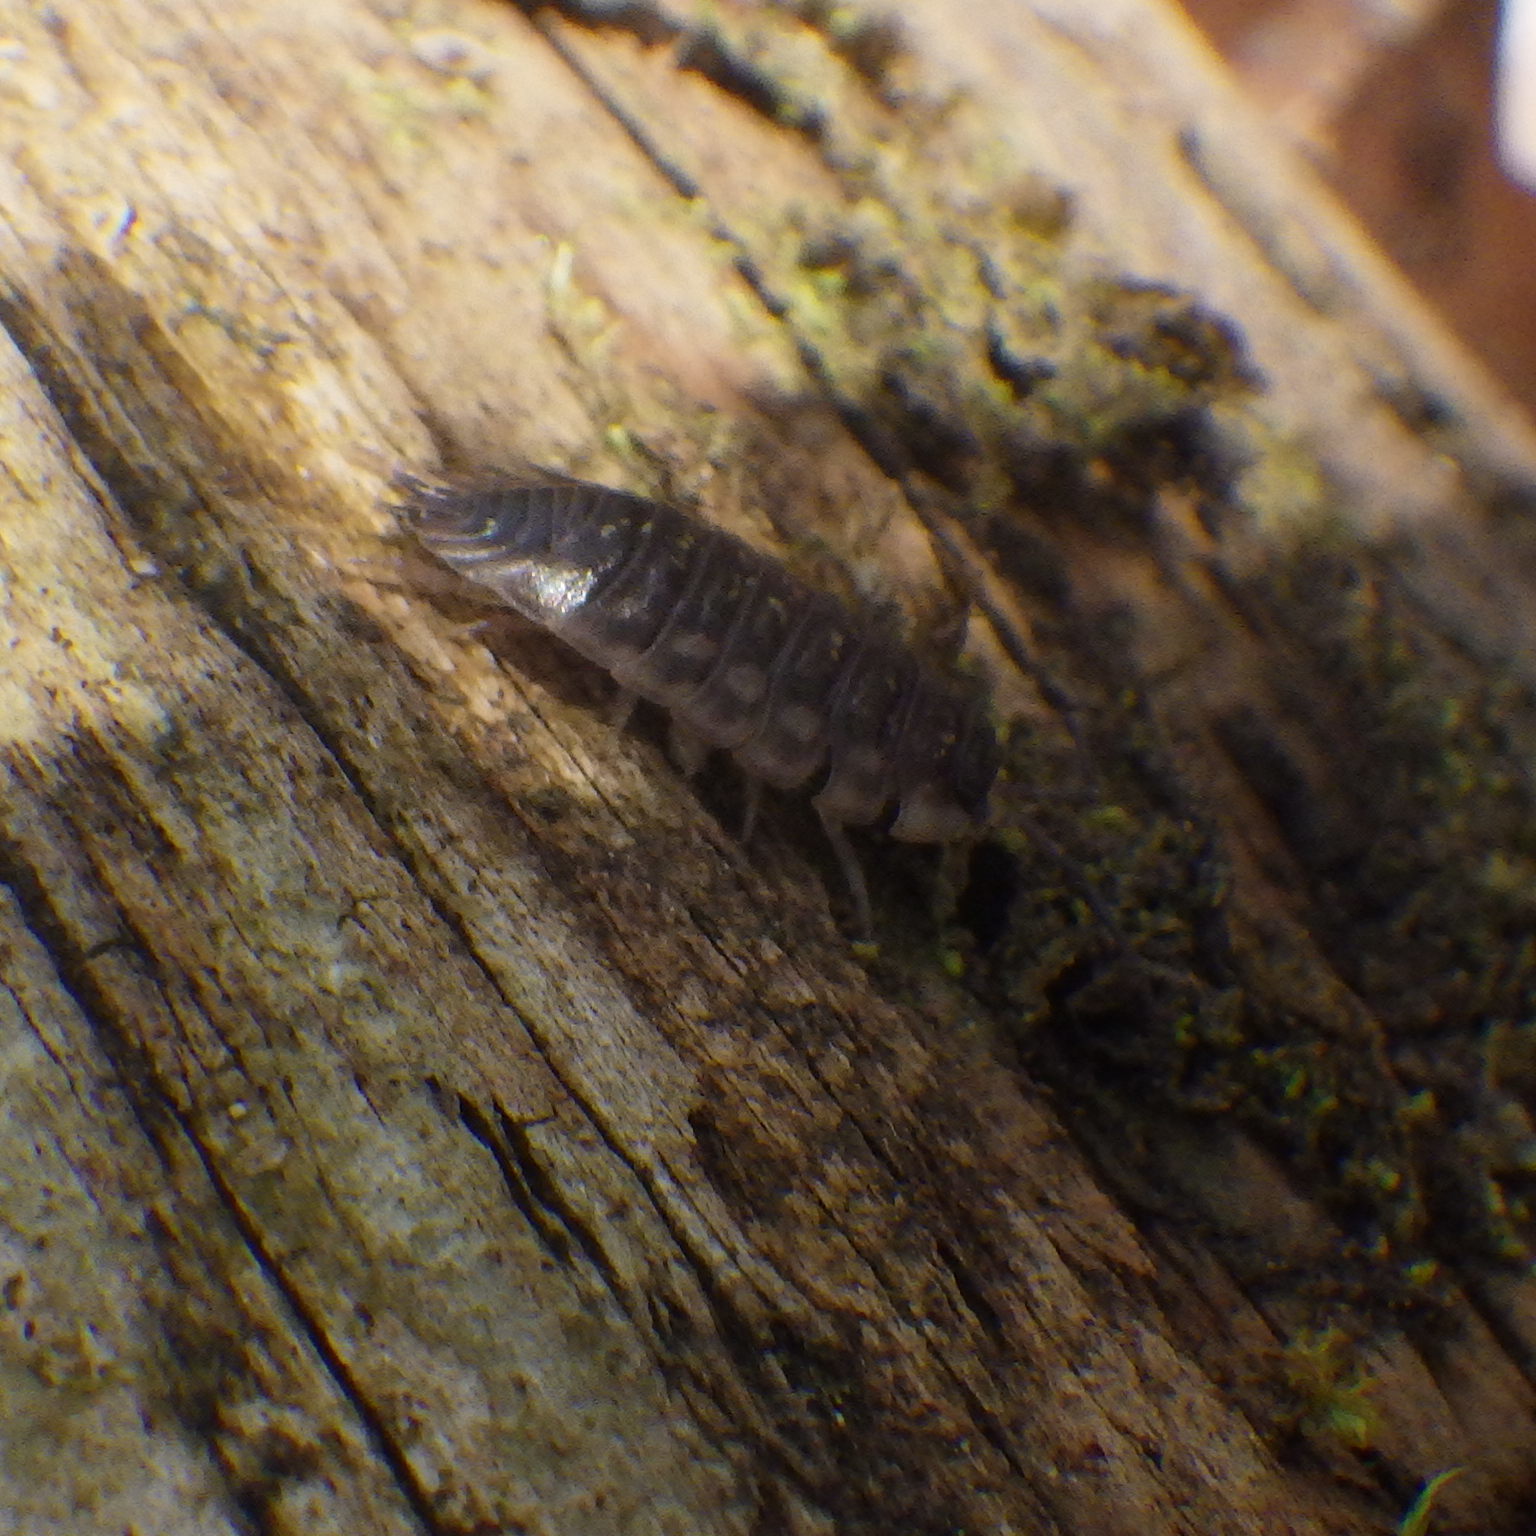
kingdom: Animalia
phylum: Arthropoda
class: Malacostraca
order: Isopoda
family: Oniscidae
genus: Oniscus
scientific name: Oniscus asellus
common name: Common shiny woodlouse
